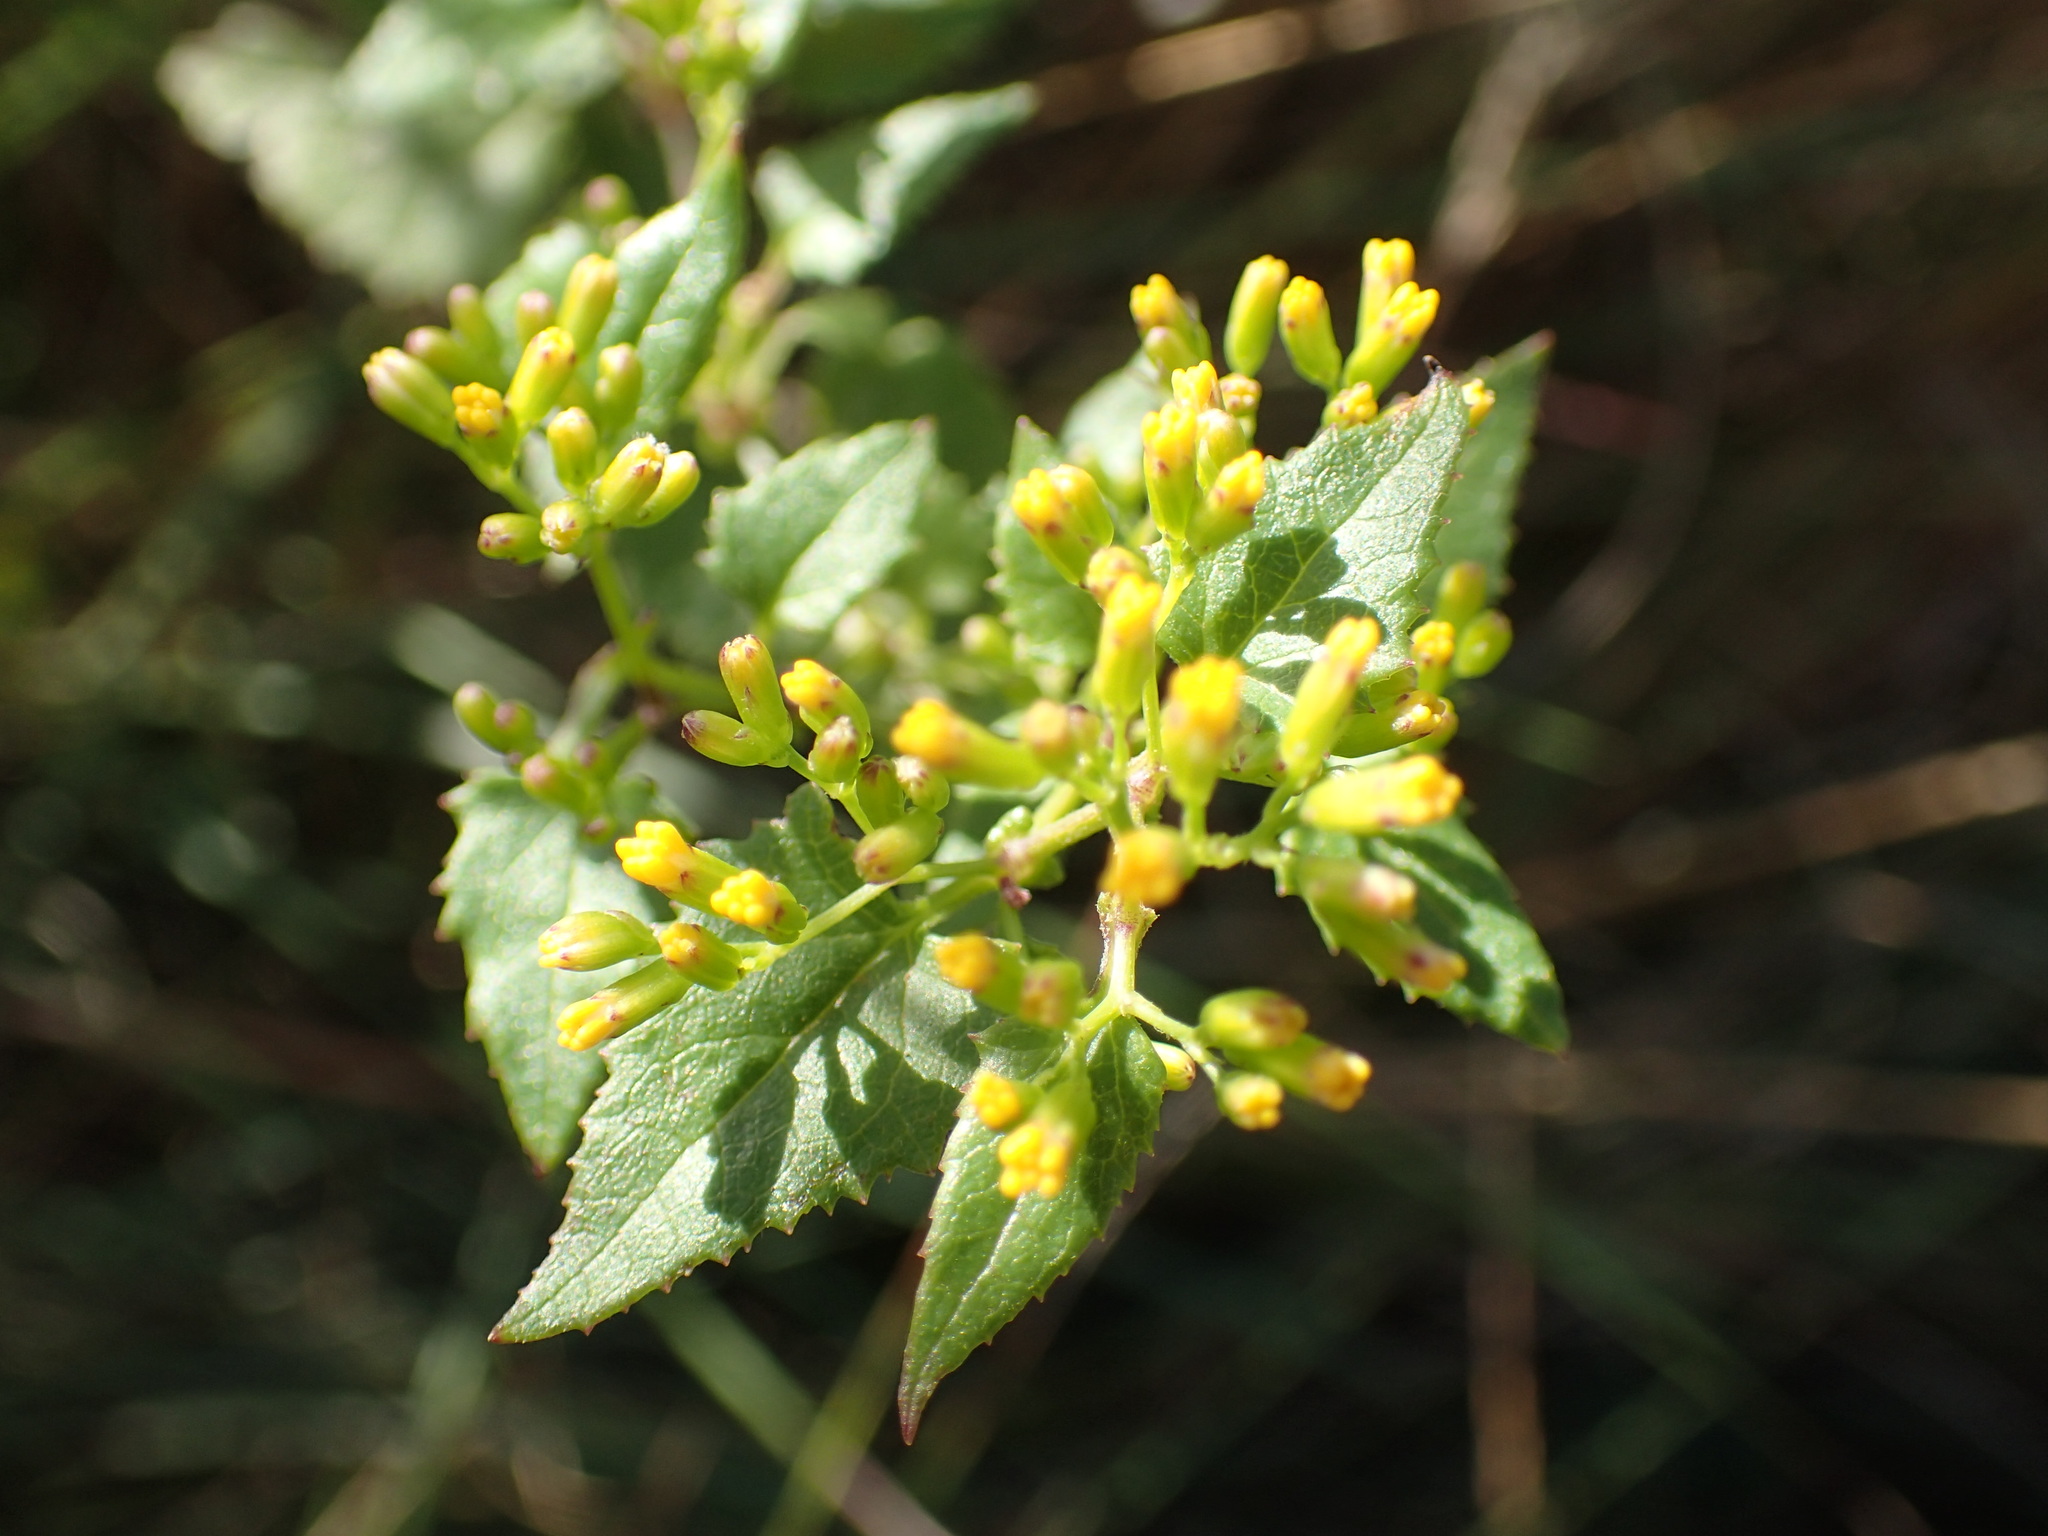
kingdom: Plantae
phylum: Tracheophyta
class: Magnoliopsida
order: Asterales
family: Asteraceae
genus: Senecio
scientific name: Senecio deltoideus
